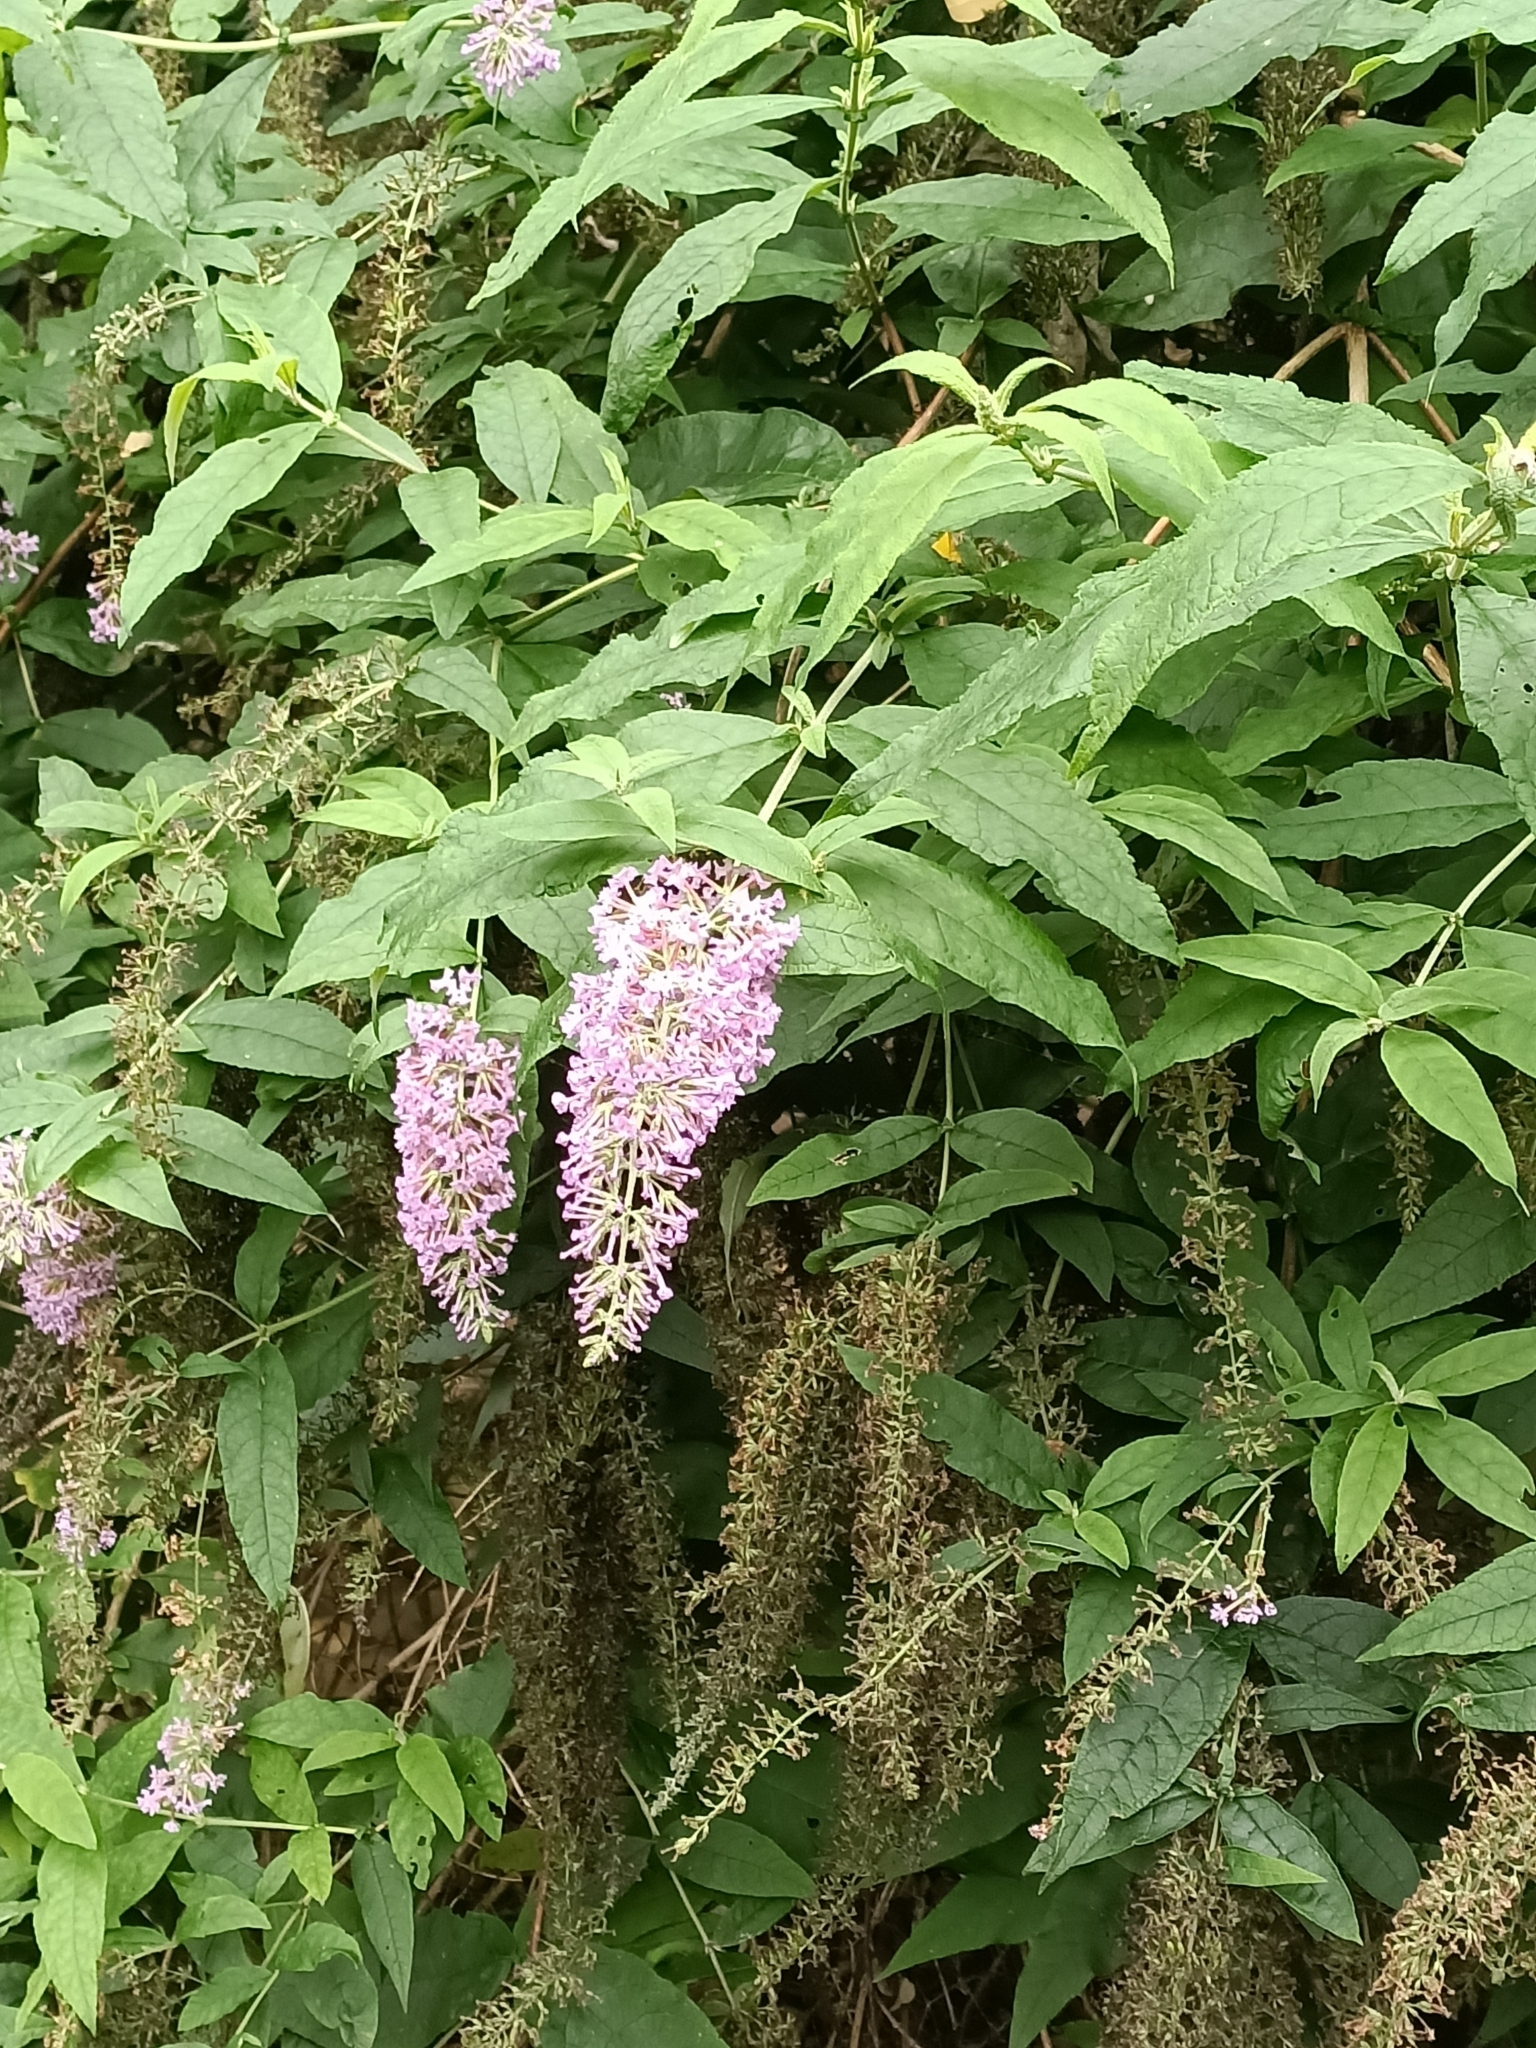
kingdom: Plantae
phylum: Tracheophyta
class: Magnoliopsida
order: Lamiales
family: Scrophulariaceae
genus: Buddleja
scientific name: Buddleja davidii
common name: Butterfly-bush
